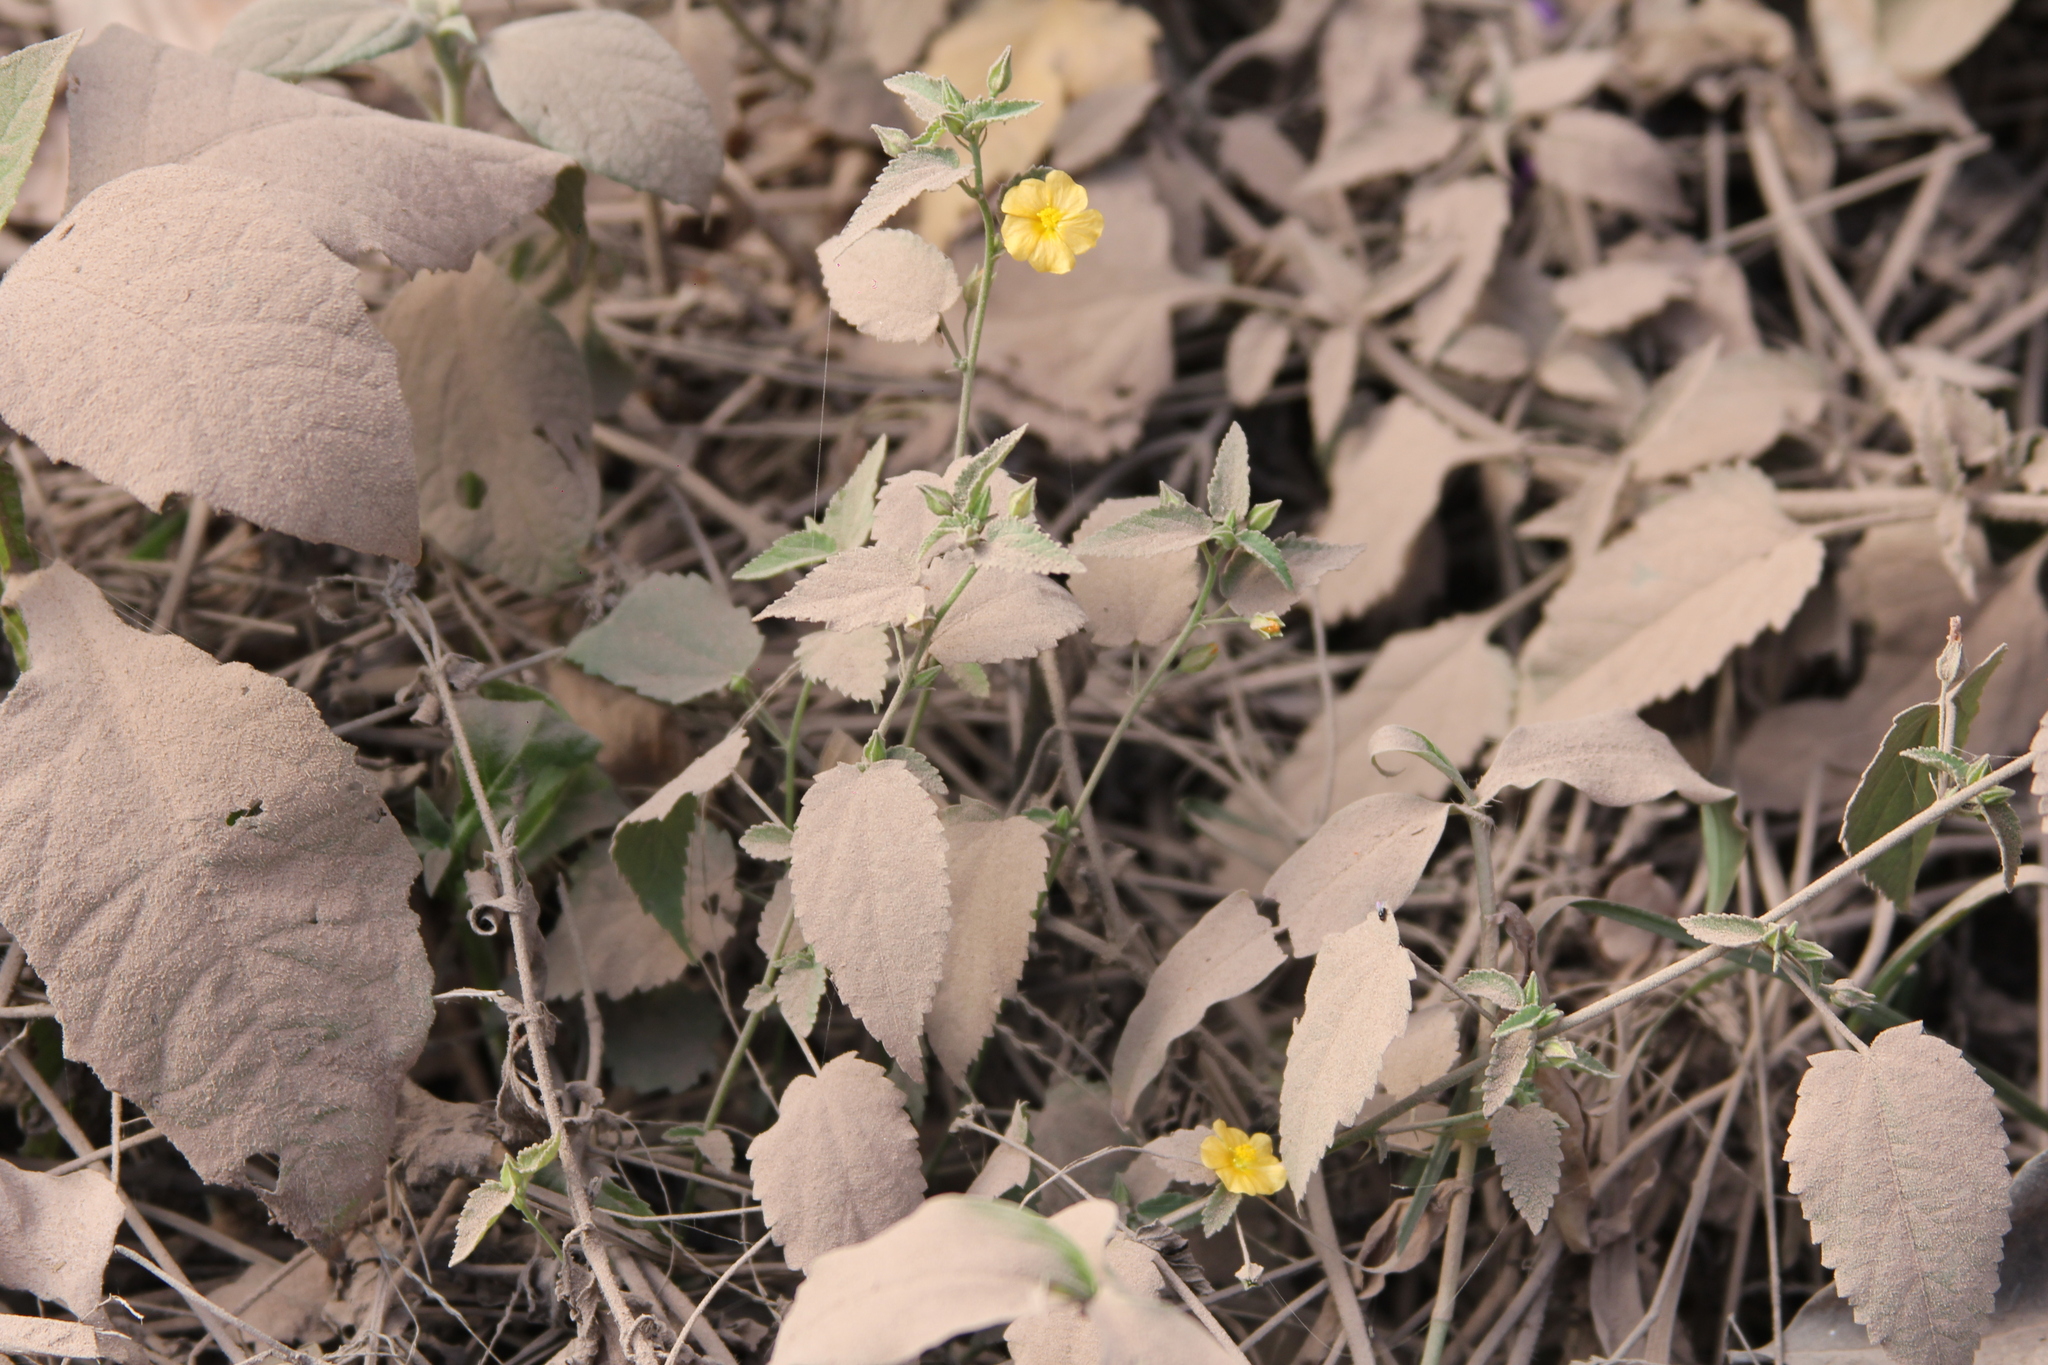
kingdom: Plantae
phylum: Tracheophyta
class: Magnoliopsida
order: Malvales
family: Malvaceae
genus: Pseudabutilon
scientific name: Pseudabutilon virgatum
